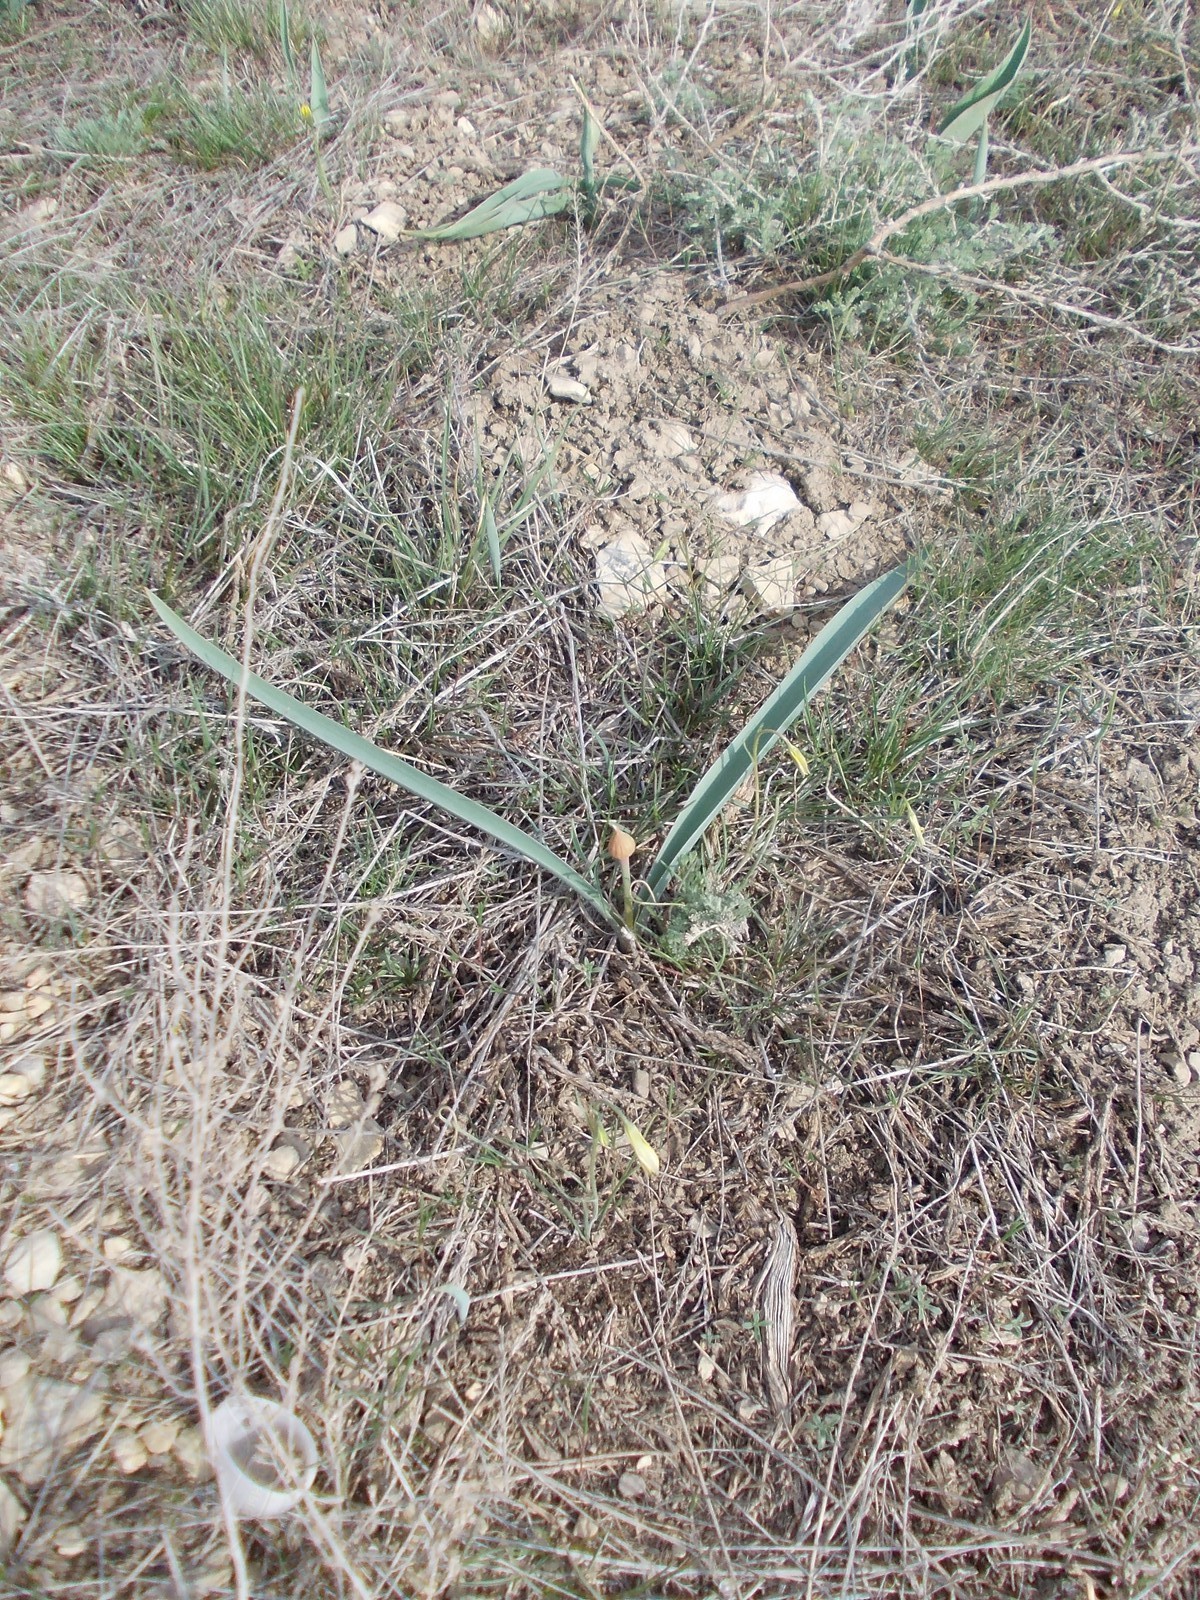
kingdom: Plantae
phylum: Tracheophyta
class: Liliopsida
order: Asparagales
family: Amaryllidaceae
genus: Allium
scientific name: Allium tulipifolium
